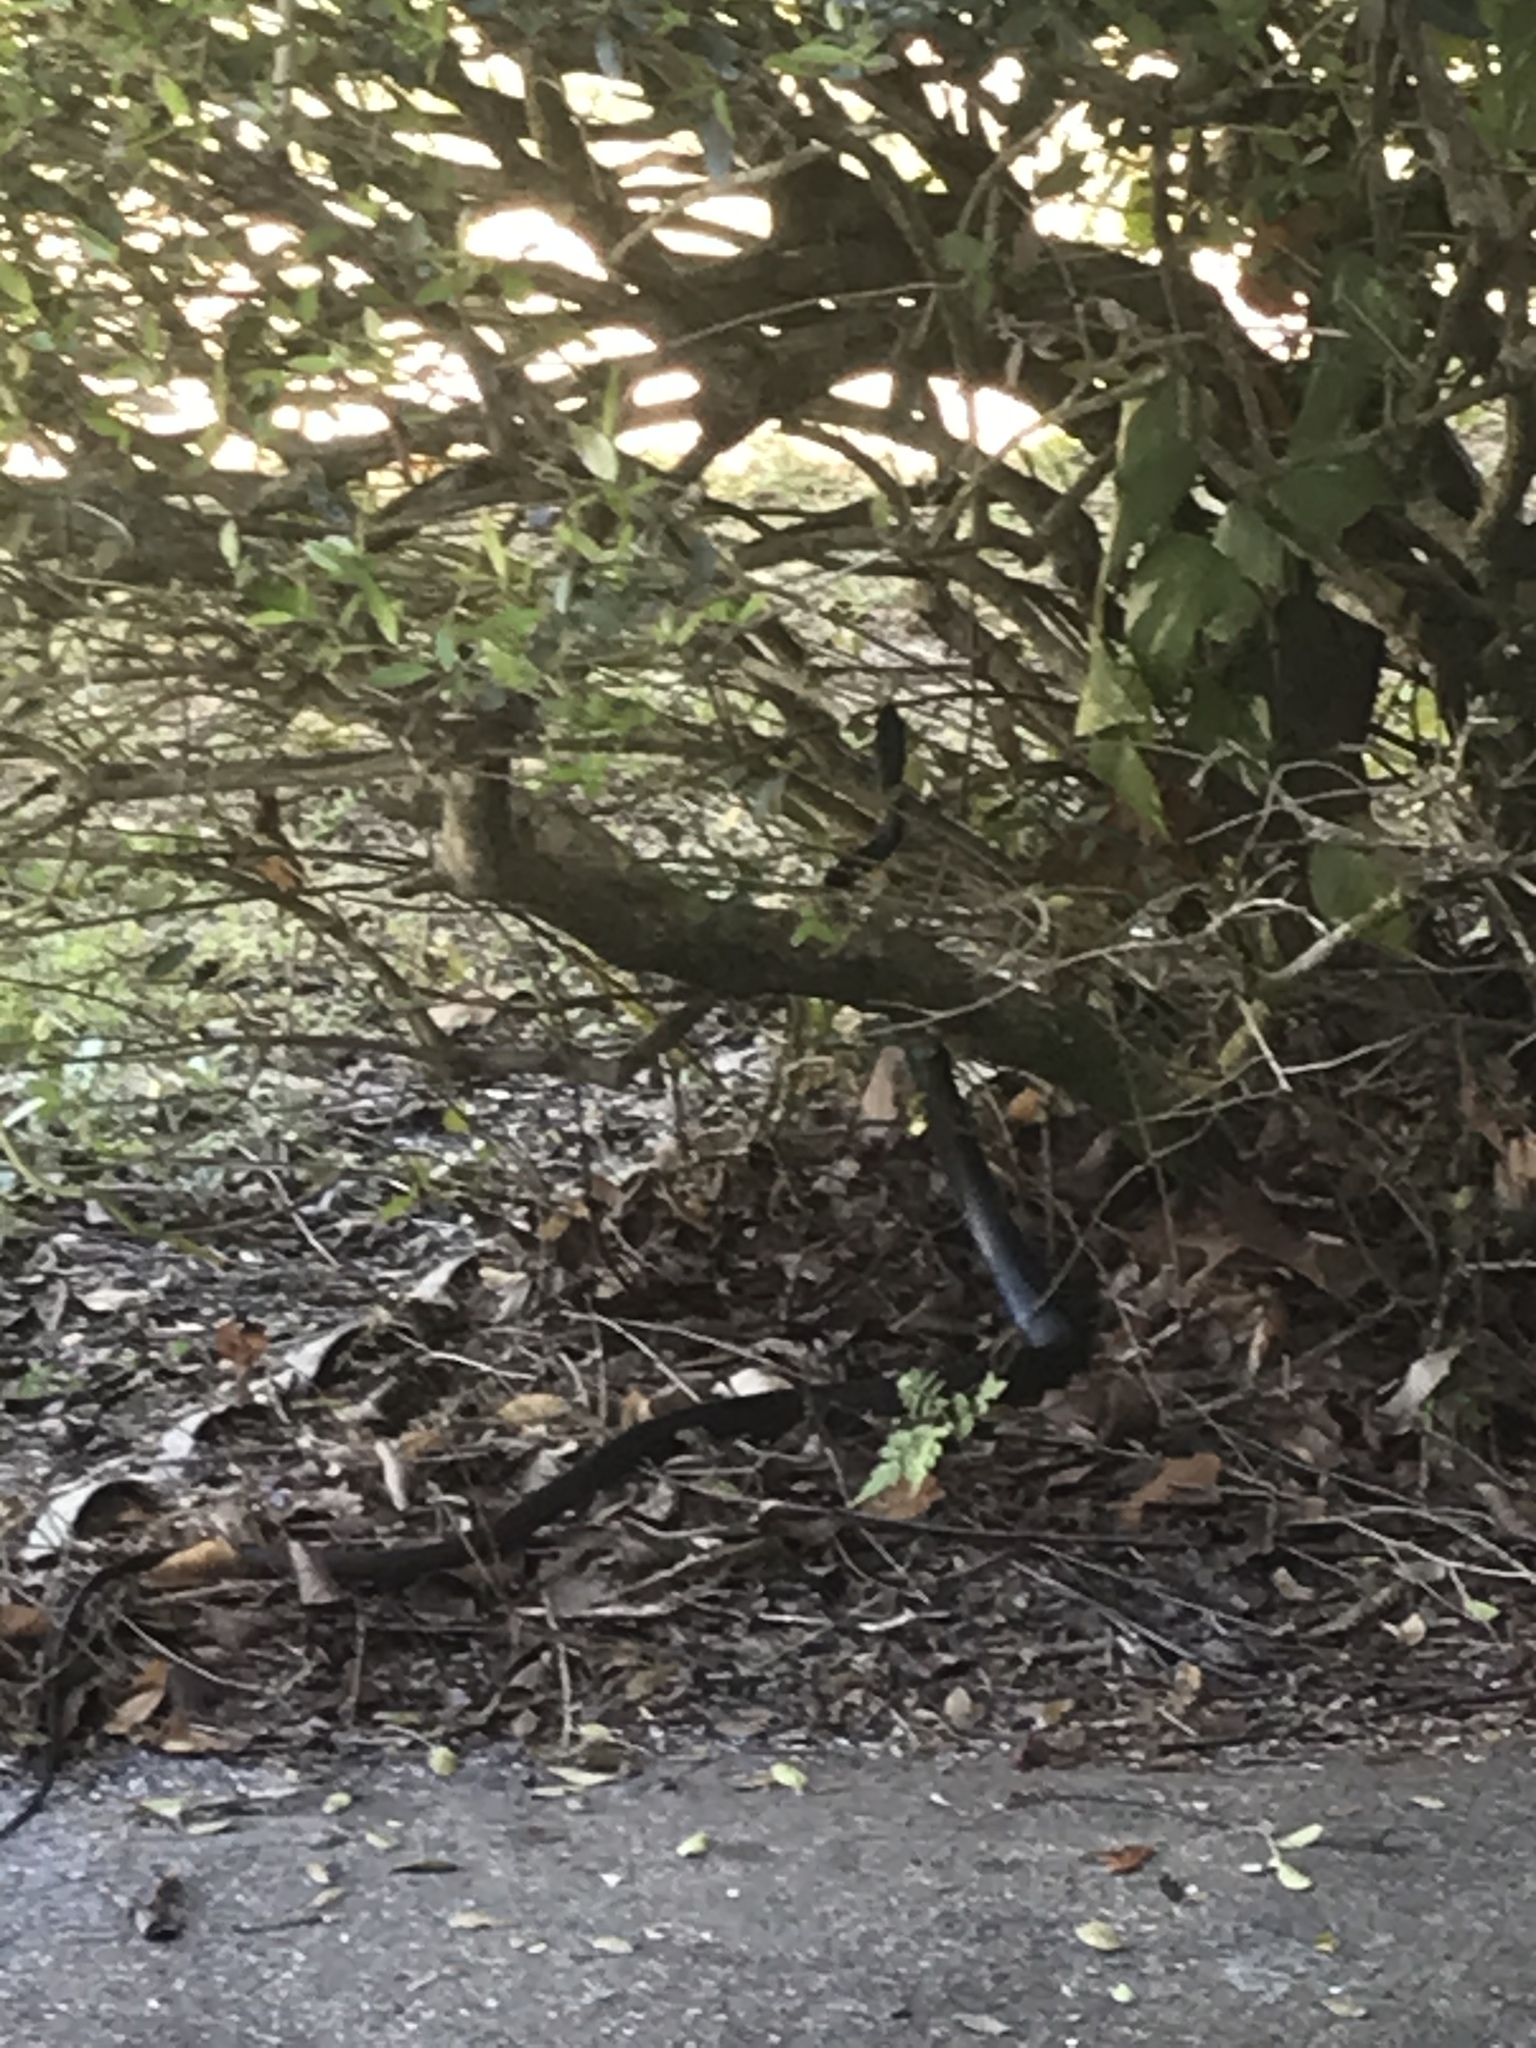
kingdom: Animalia
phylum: Chordata
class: Squamata
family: Colubridae
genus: Coluber
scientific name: Coluber constrictor
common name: Eastern racer
